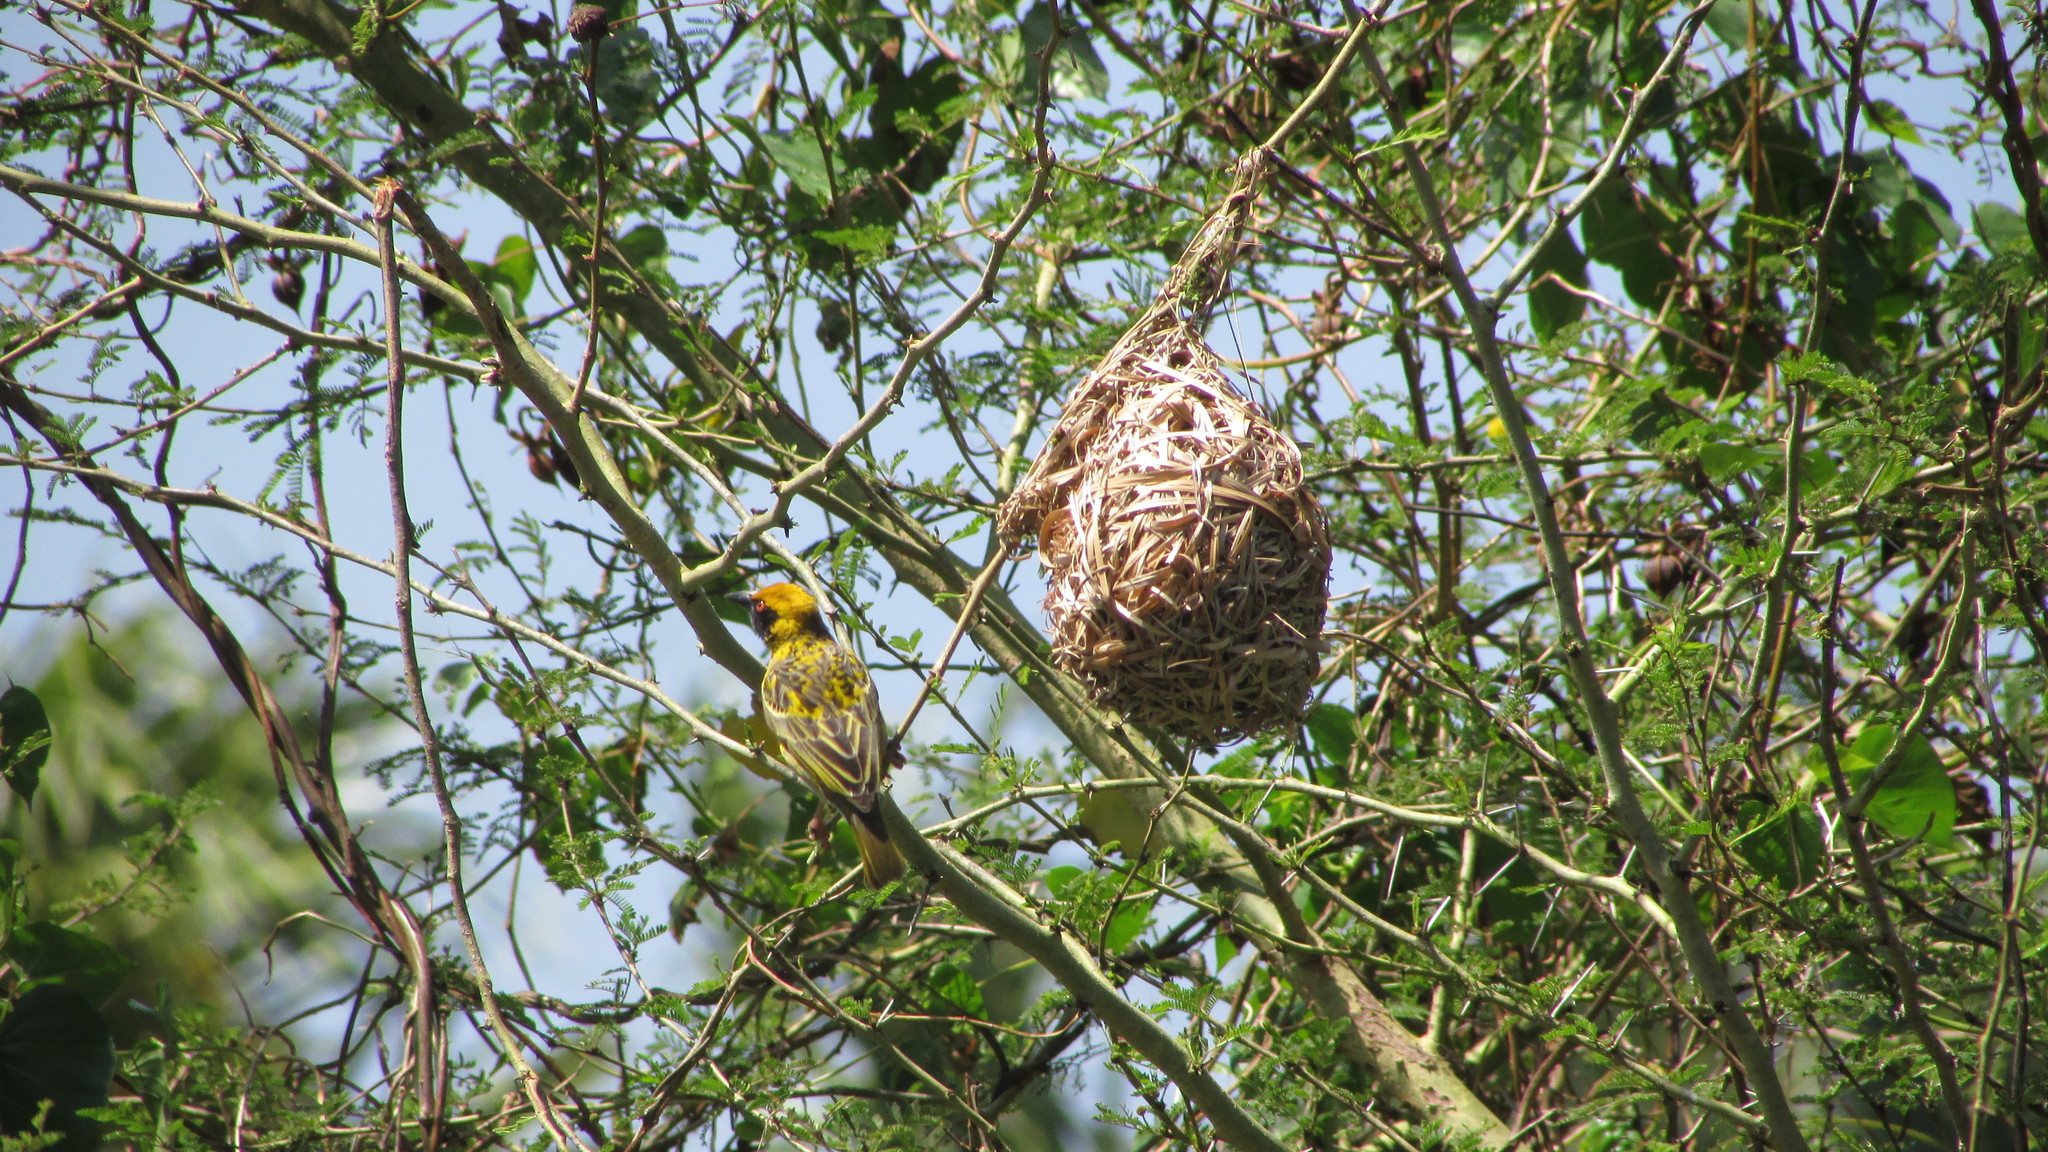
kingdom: Animalia
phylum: Chordata
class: Aves
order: Passeriformes
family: Ploceidae
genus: Ploceus
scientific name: Ploceus cucullatus
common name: Village weaver
